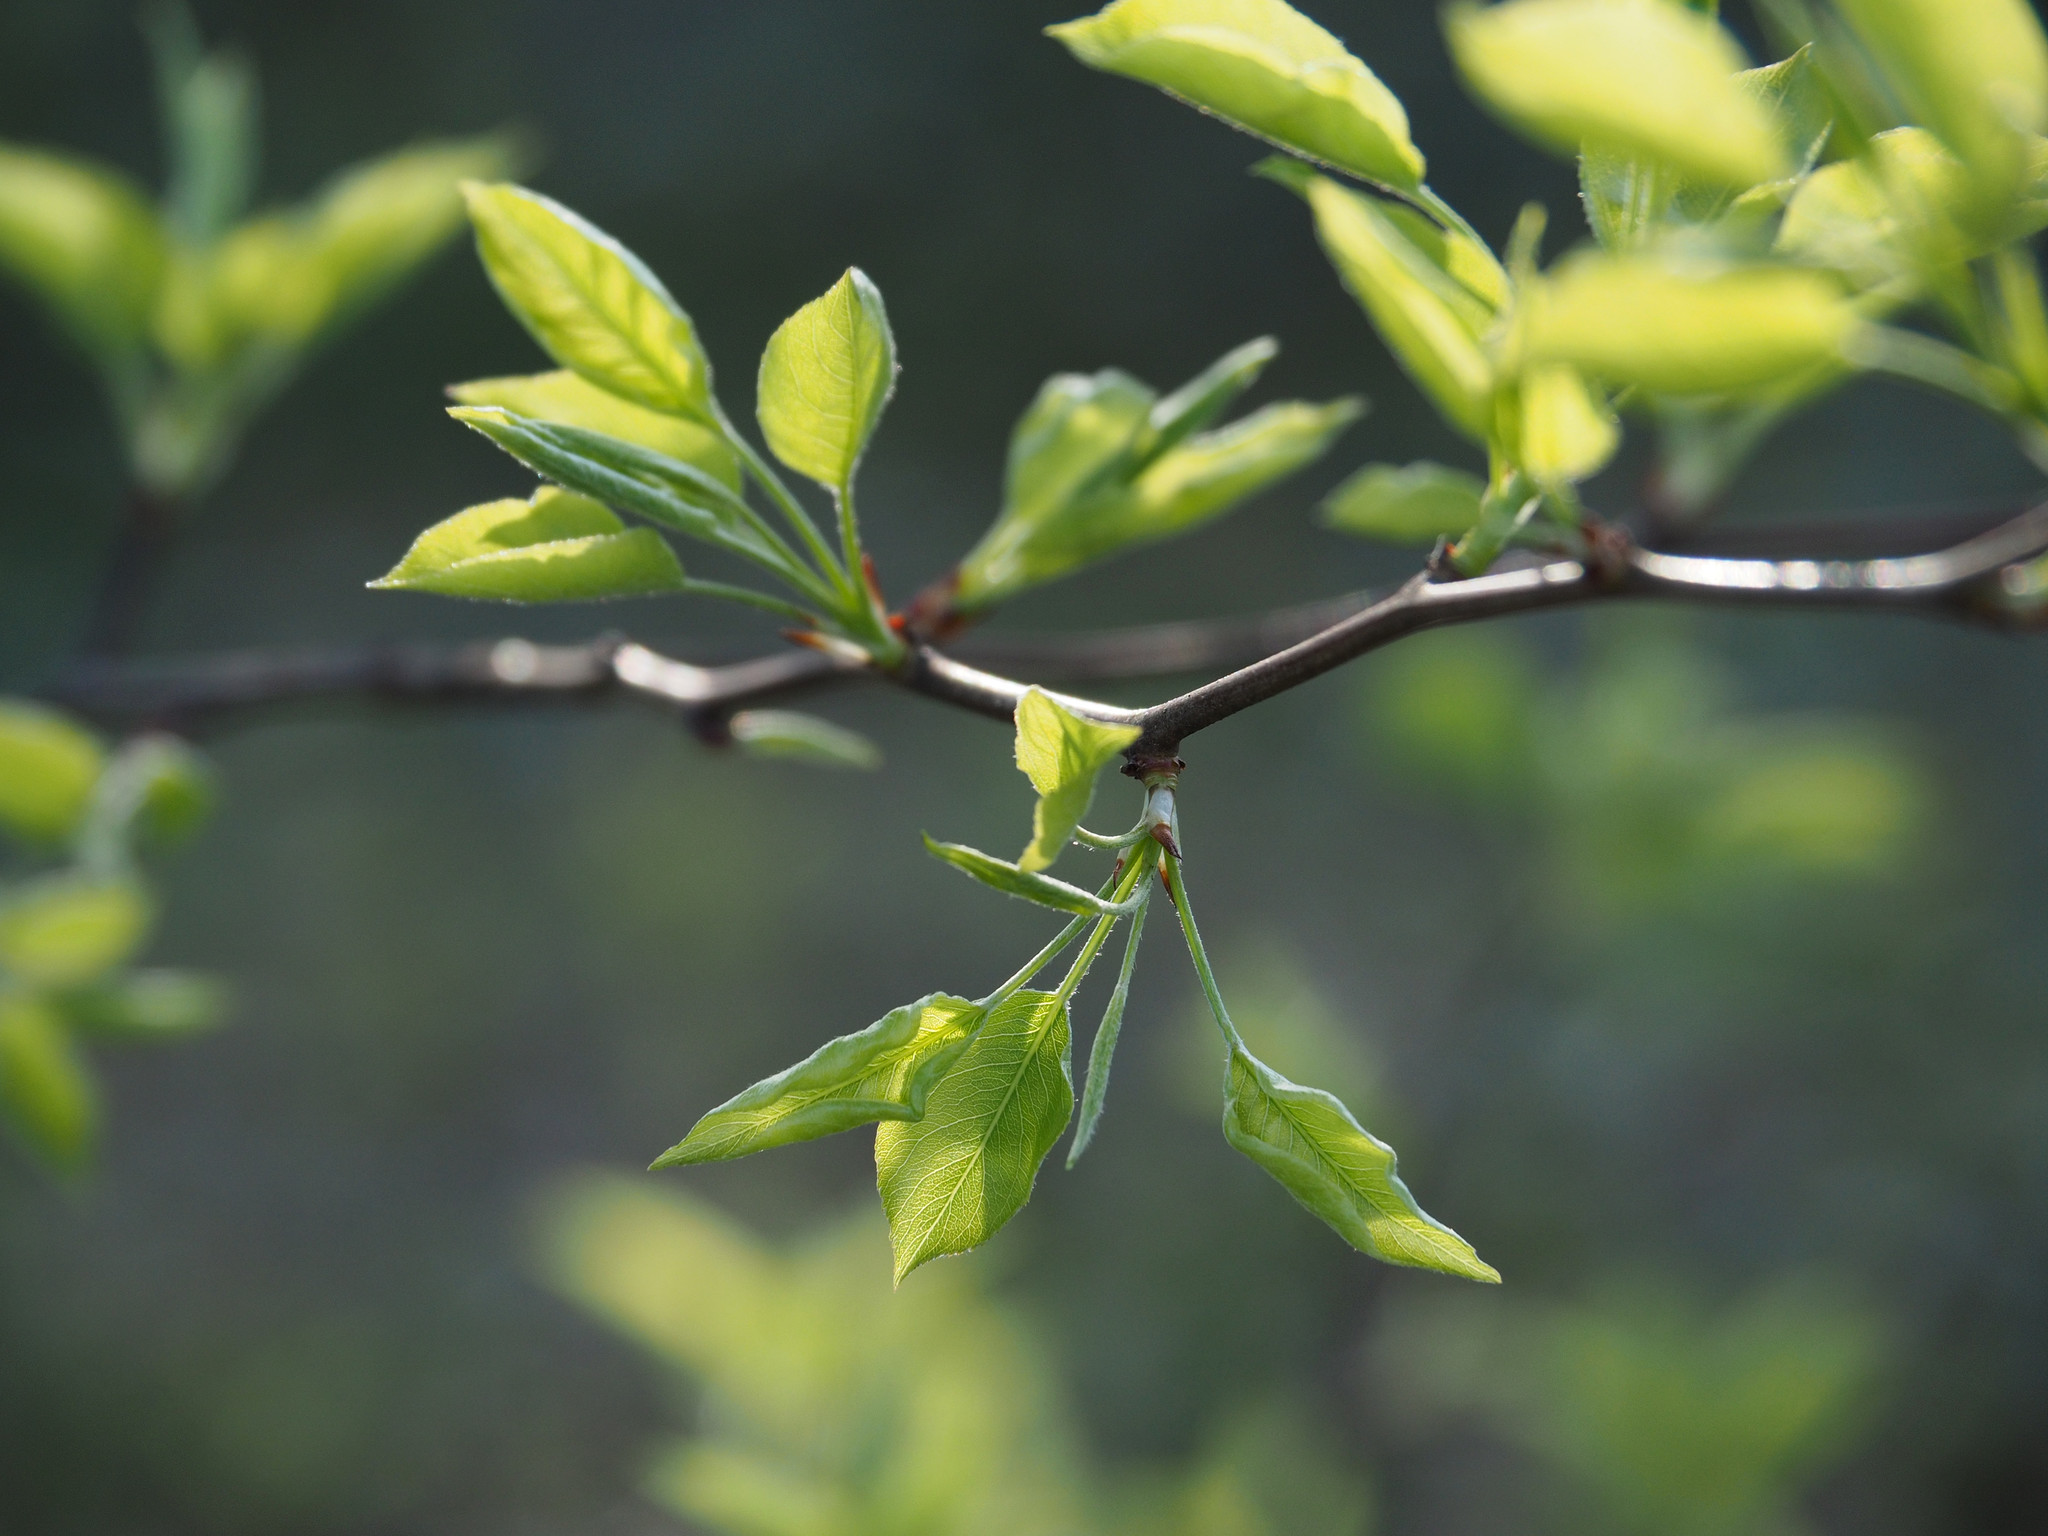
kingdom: Plantae
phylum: Tracheophyta
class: Magnoliopsida
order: Rosales
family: Rosaceae
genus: Pyrus
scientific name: Pyrus calleryana
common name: Callery pear
